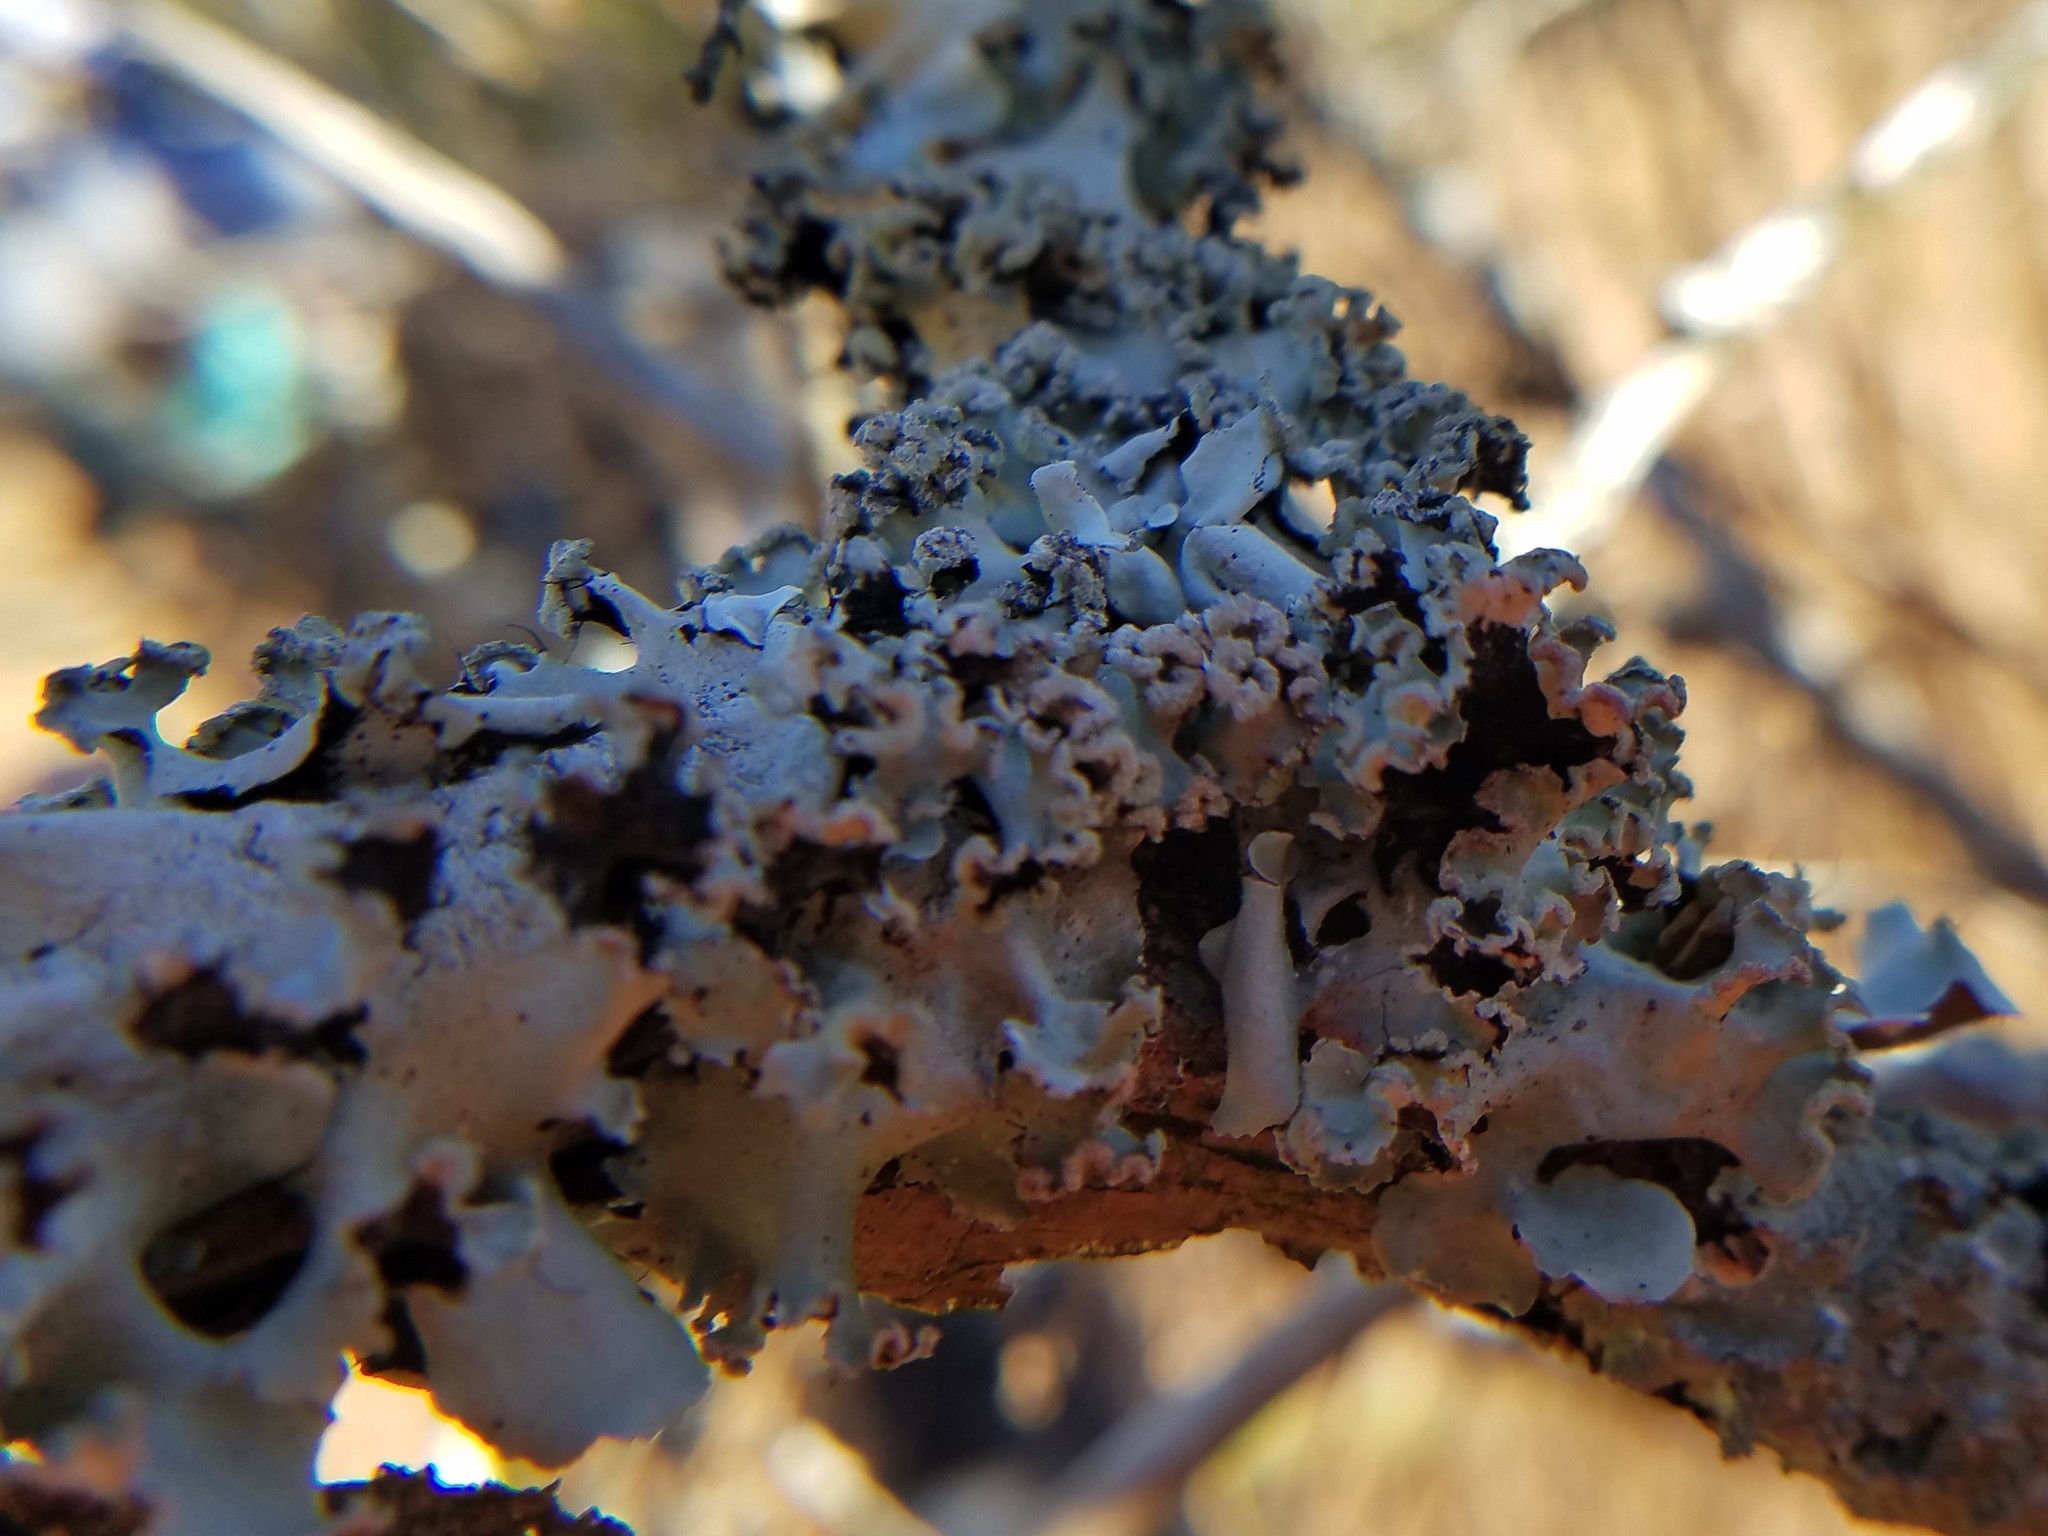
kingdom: Fungi
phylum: Ascomycota
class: Lecanoromycetes
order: Lecanorales
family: Parmeliaceae
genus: Parmotrema
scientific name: Parmotrema rampoddense
